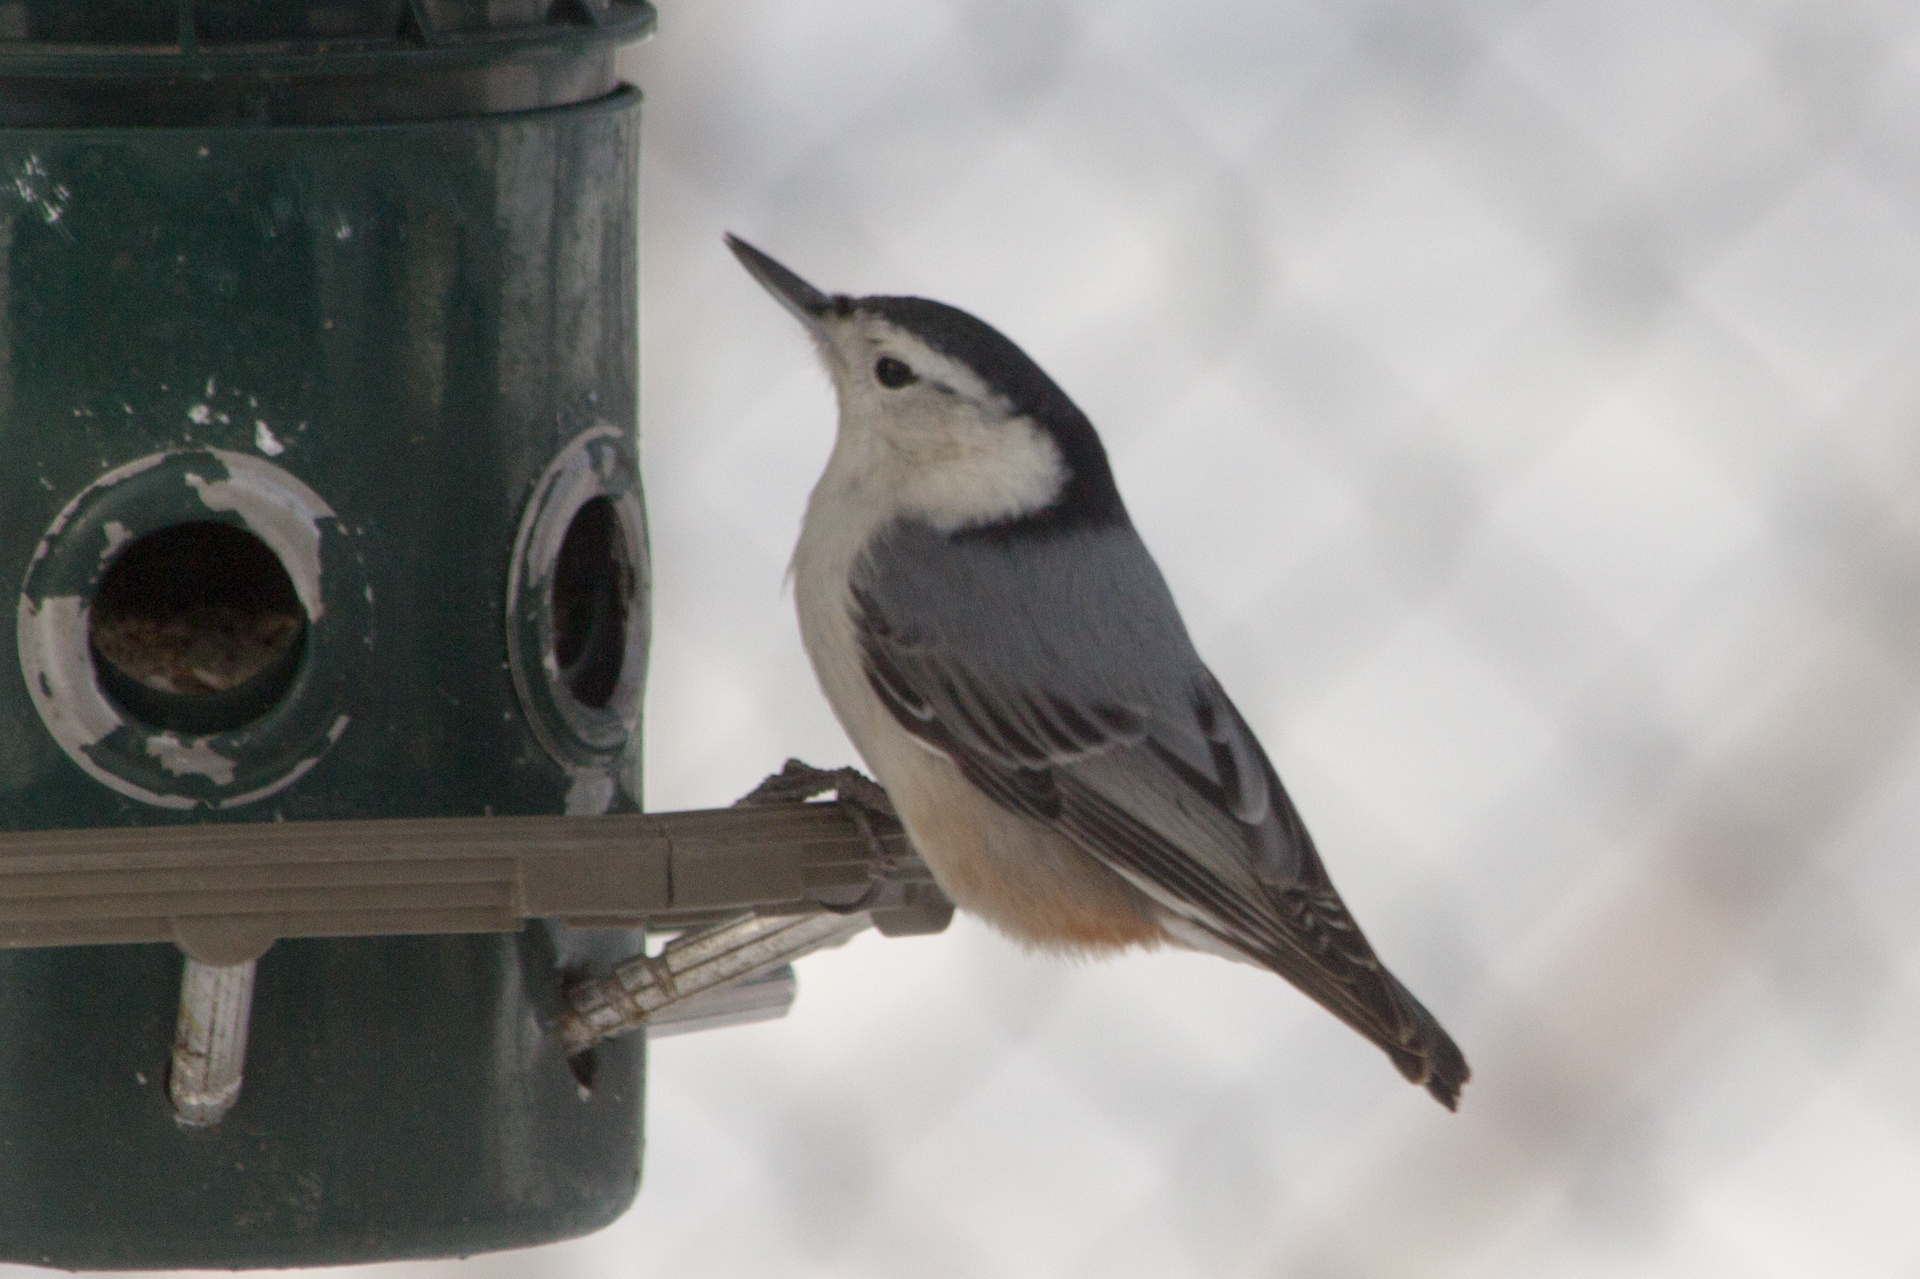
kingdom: Animalia
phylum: Chordata
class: Aves
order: Passeriformes
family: Sittidae
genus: Sitta
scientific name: Sitta carolinensis
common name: White-breasted nuthatch
